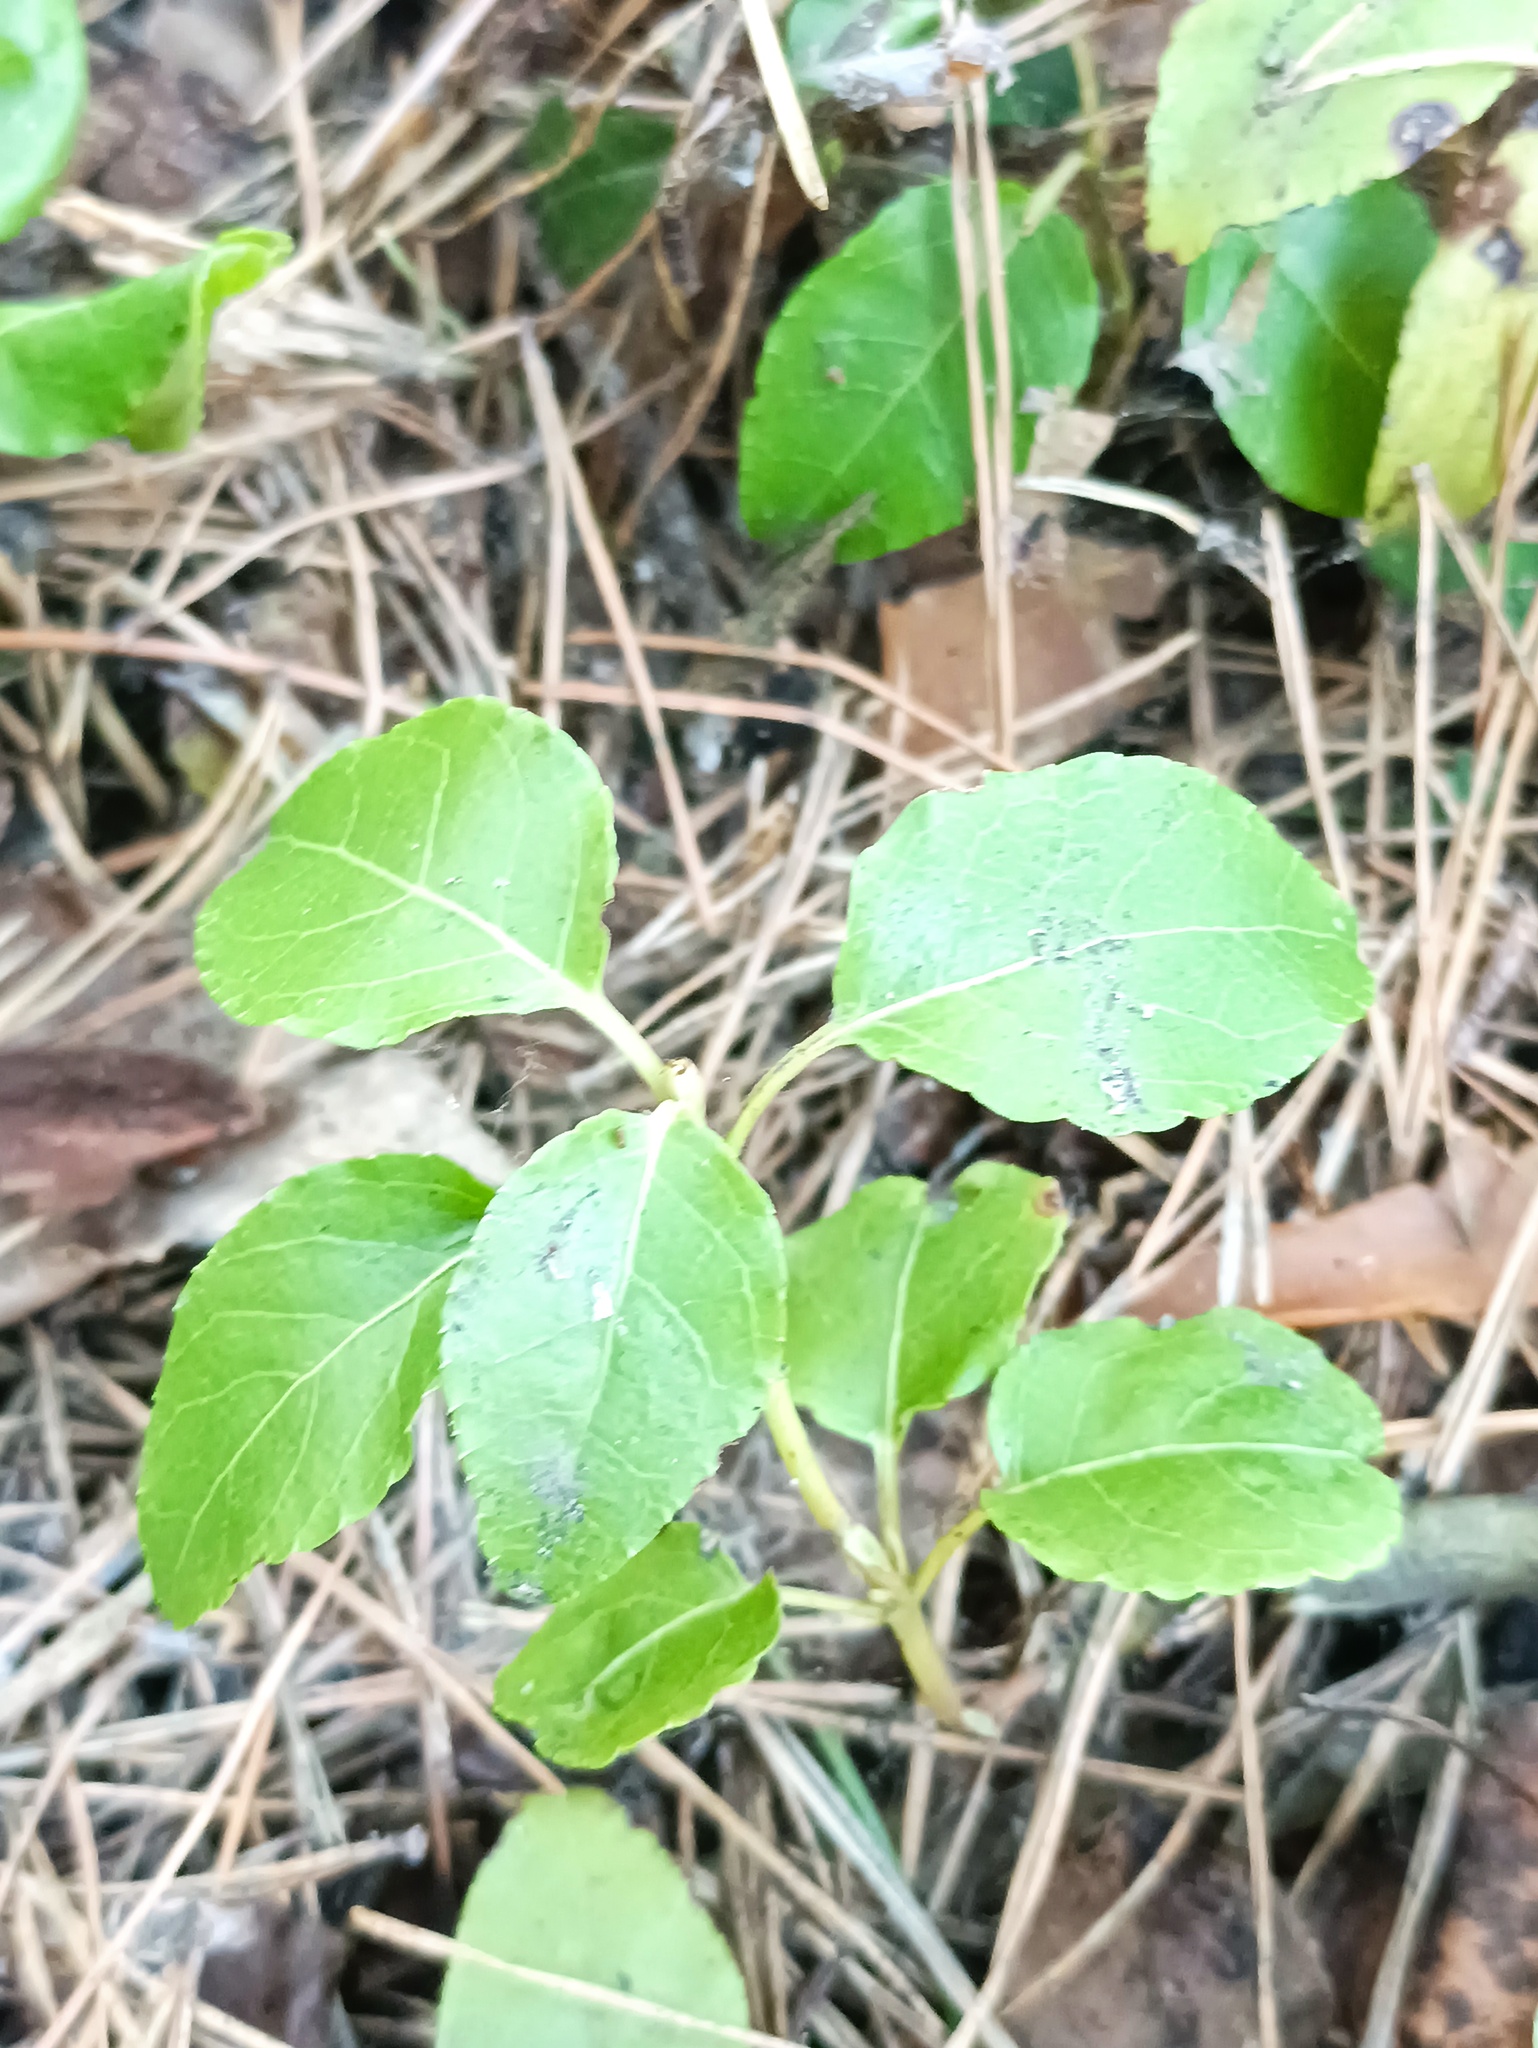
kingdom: Plantae
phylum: Tracheophyta
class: Magnoliopsida
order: Ericales
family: Ericaceae
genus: Orthilia
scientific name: Orthilia secunda
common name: One-sided orthilia
